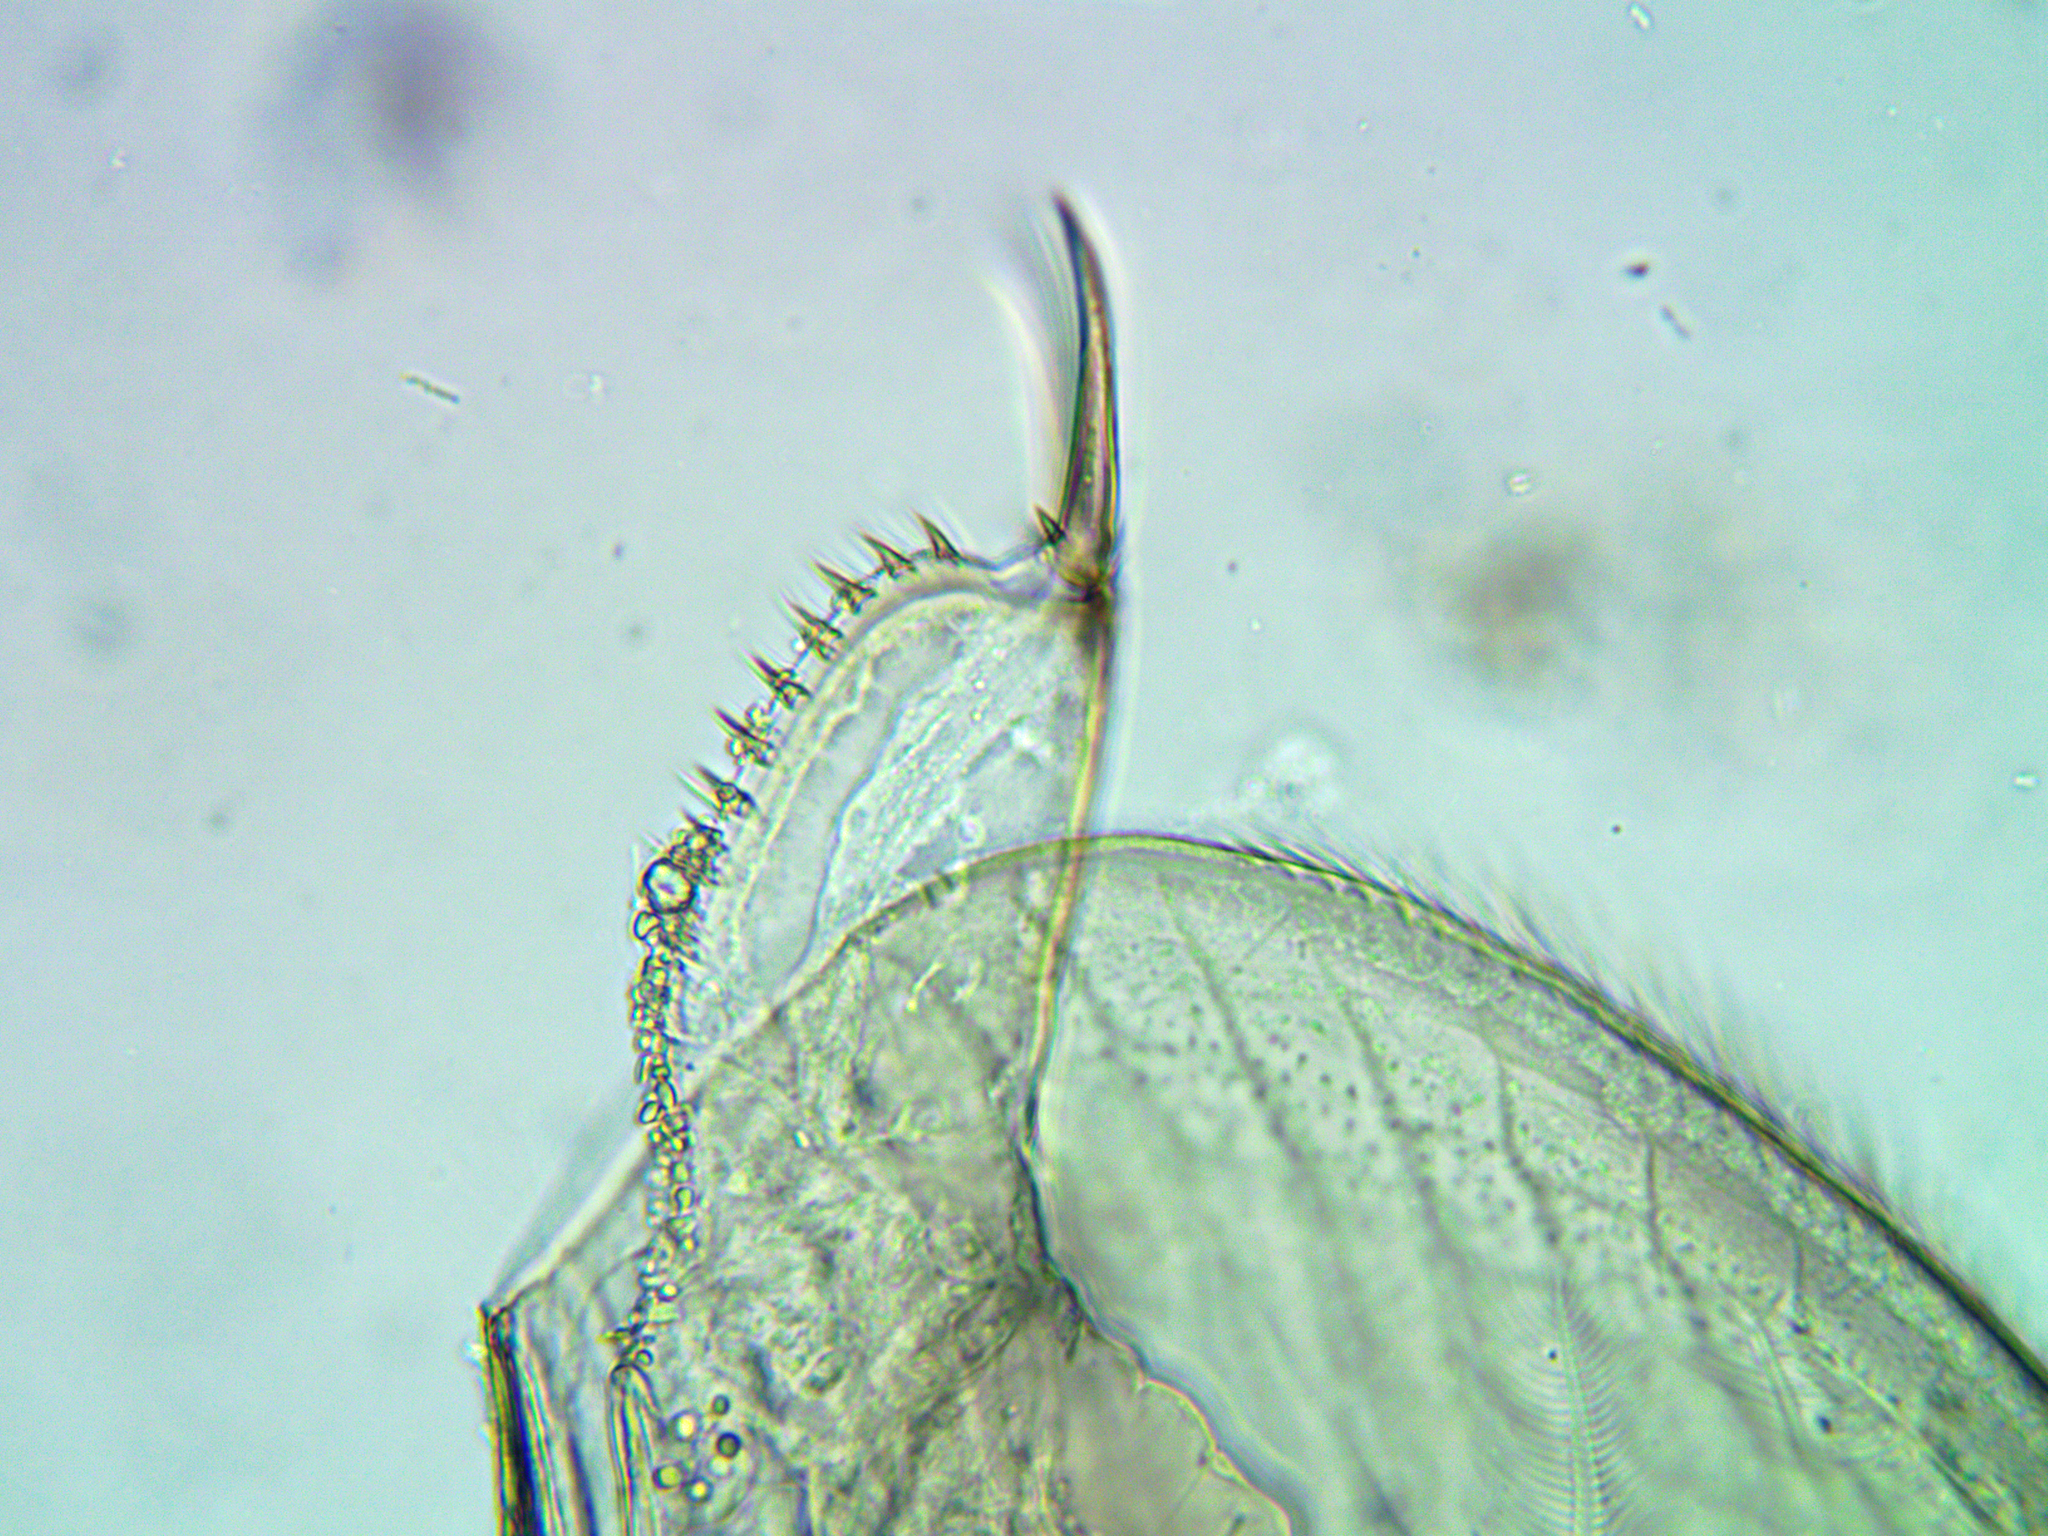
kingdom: Animalia
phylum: Arthropoda
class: Branchiopoda
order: Diplostraca
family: Chydoridae
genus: Disparalona
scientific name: Disparalona rostrata
